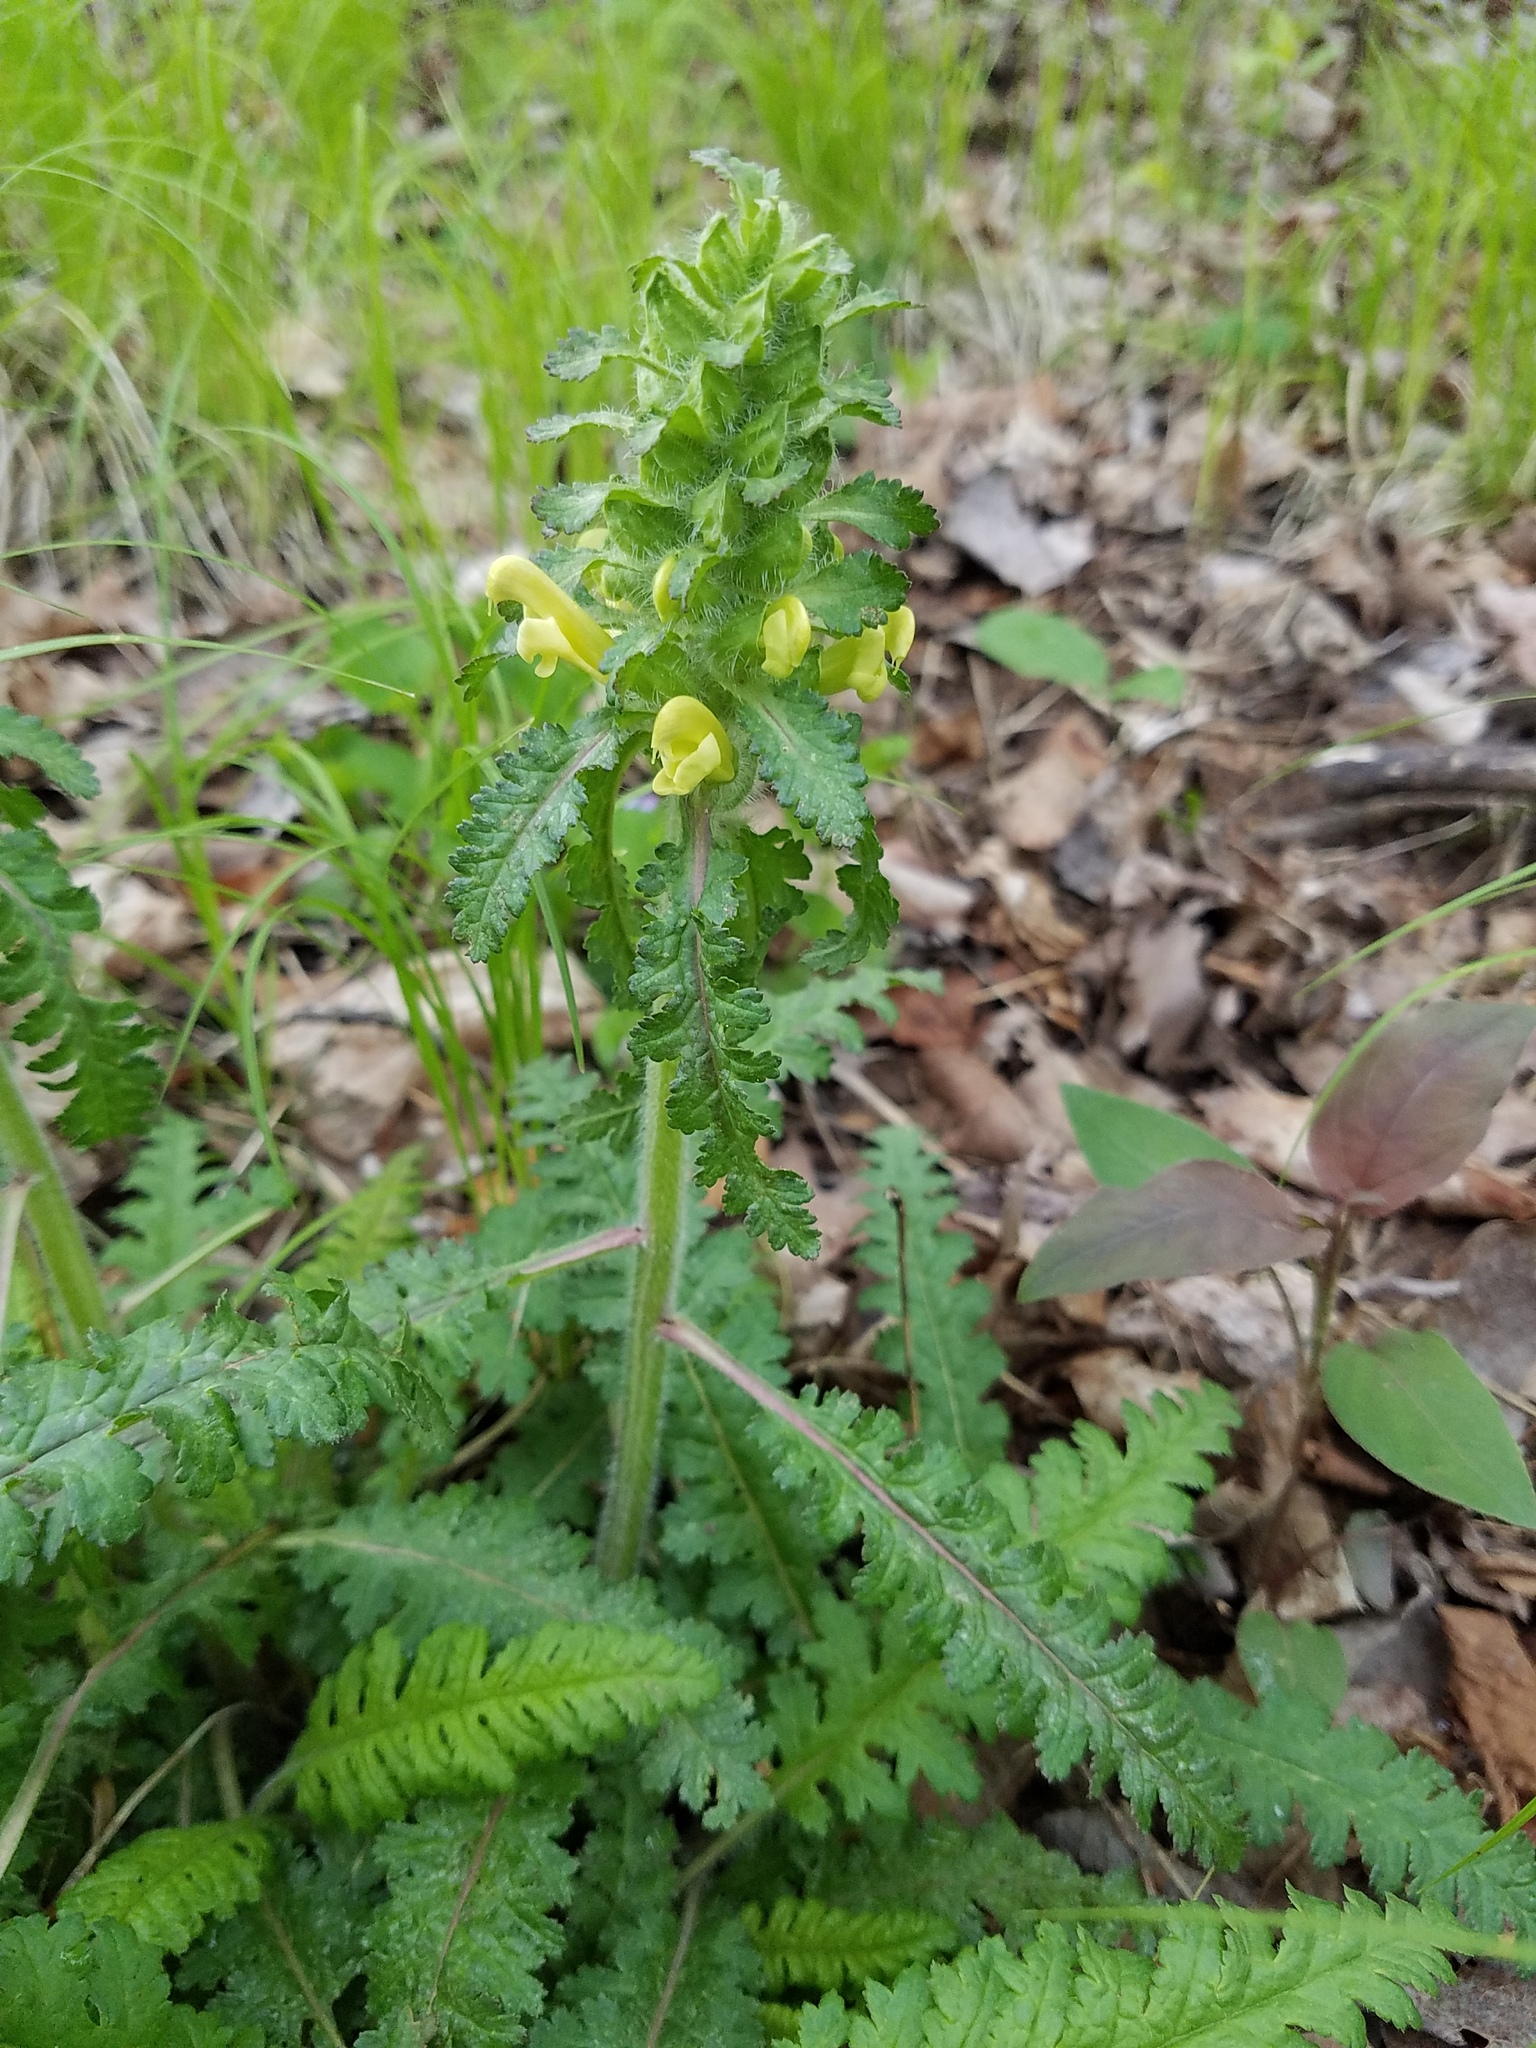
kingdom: Plantae
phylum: Tracheophyta
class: Magnoliopsida
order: Lamiales
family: Orobanchaceae
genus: Pedicularis
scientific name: Pedicularis canadensis
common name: Early lousewort
